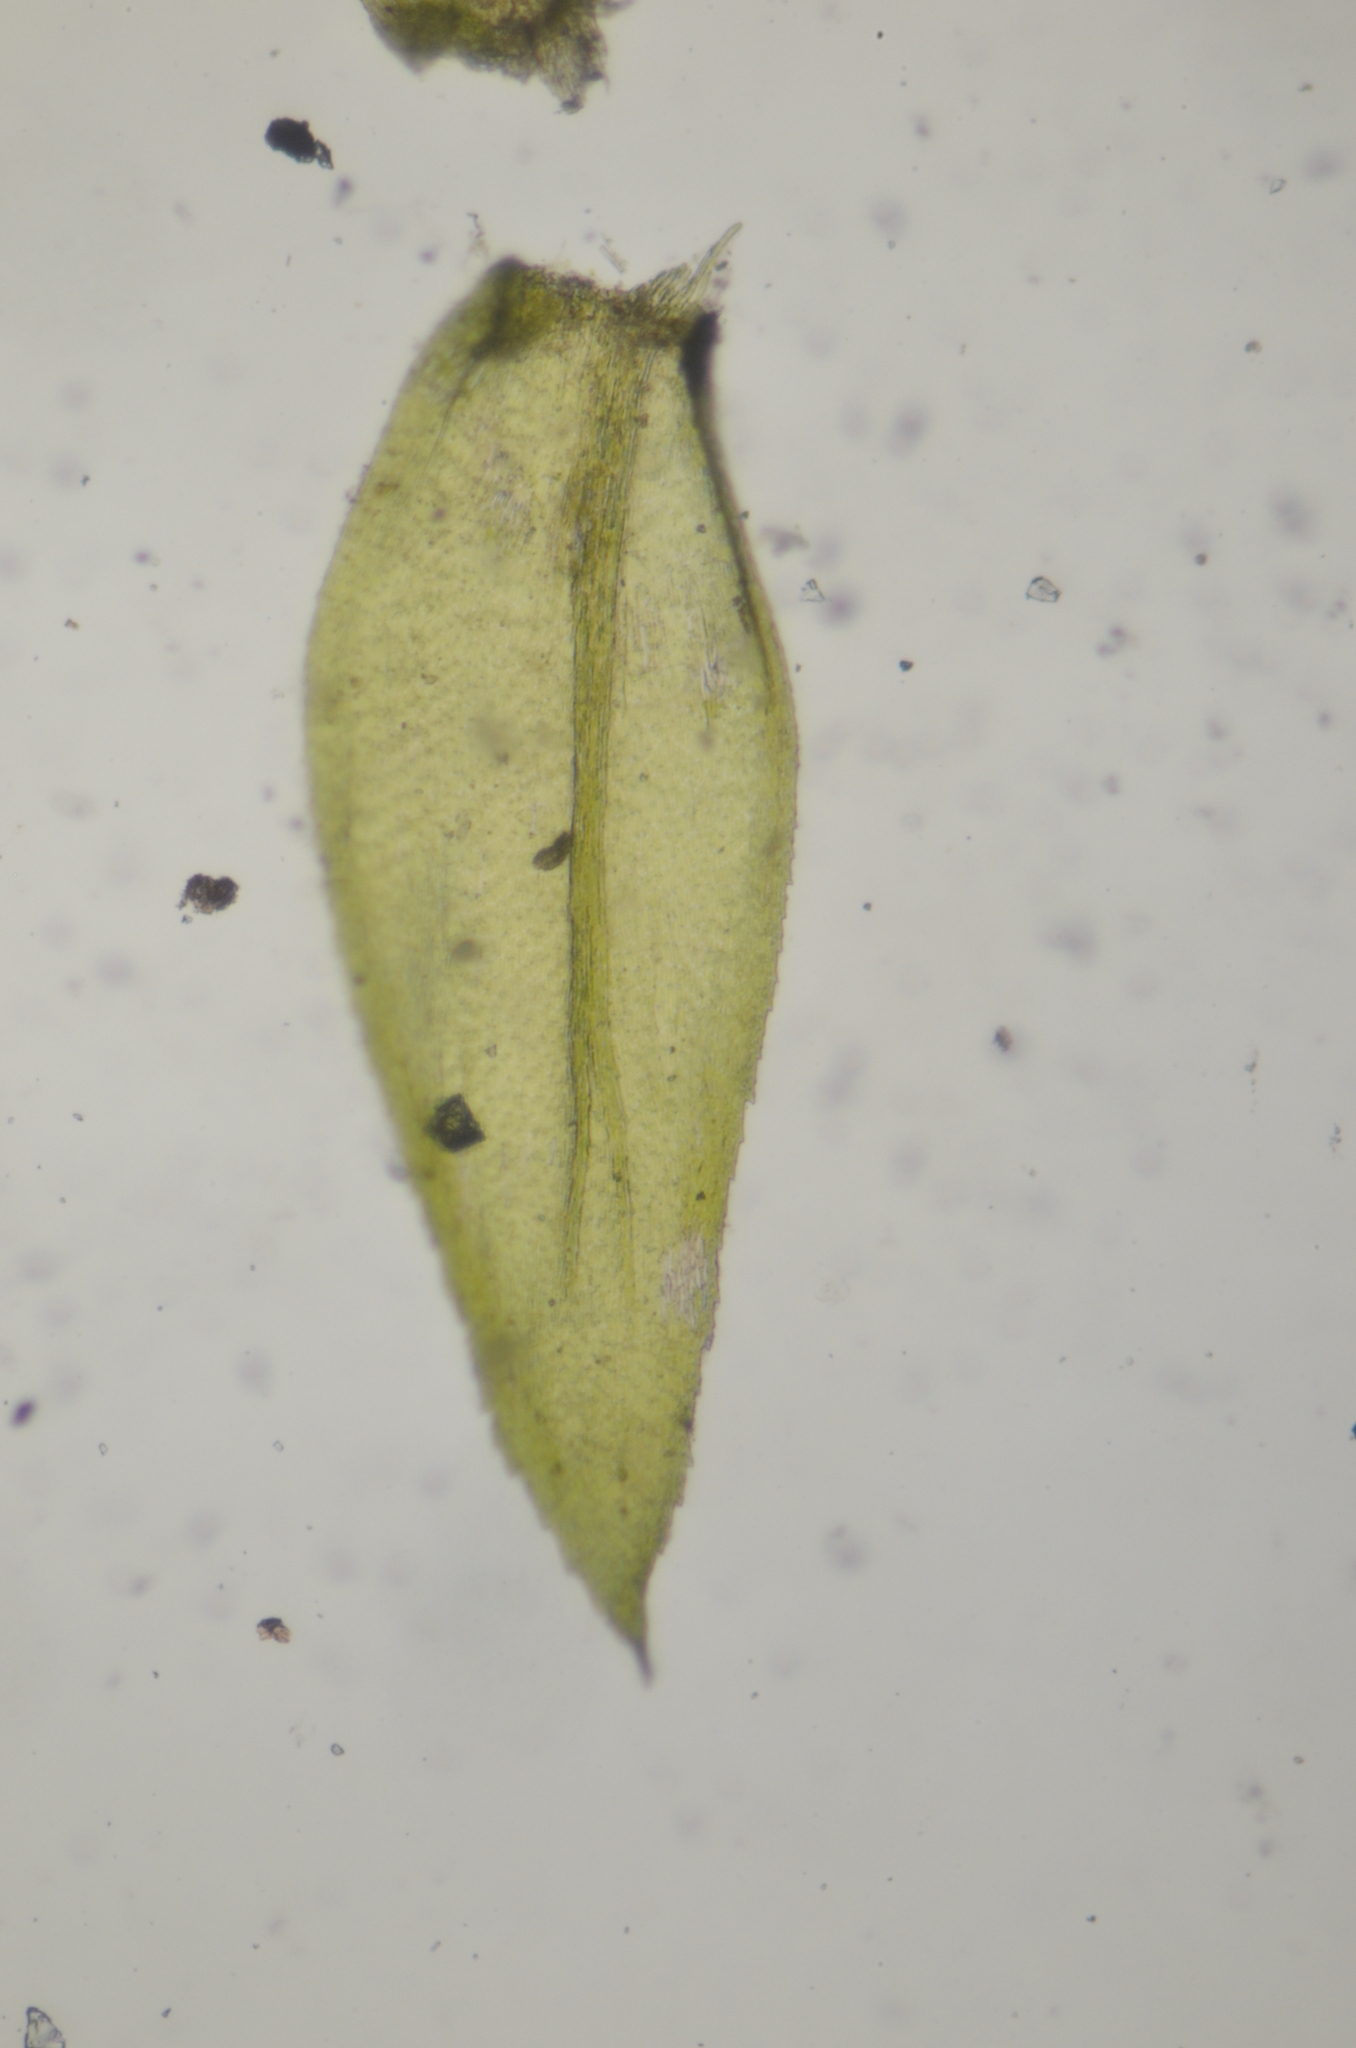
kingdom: Plantae
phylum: Bryophyta
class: Bryopsida
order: Hypnales
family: Lembophyllaceae
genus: Pseudisothecium
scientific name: Pseudisothecium stoloniferum
